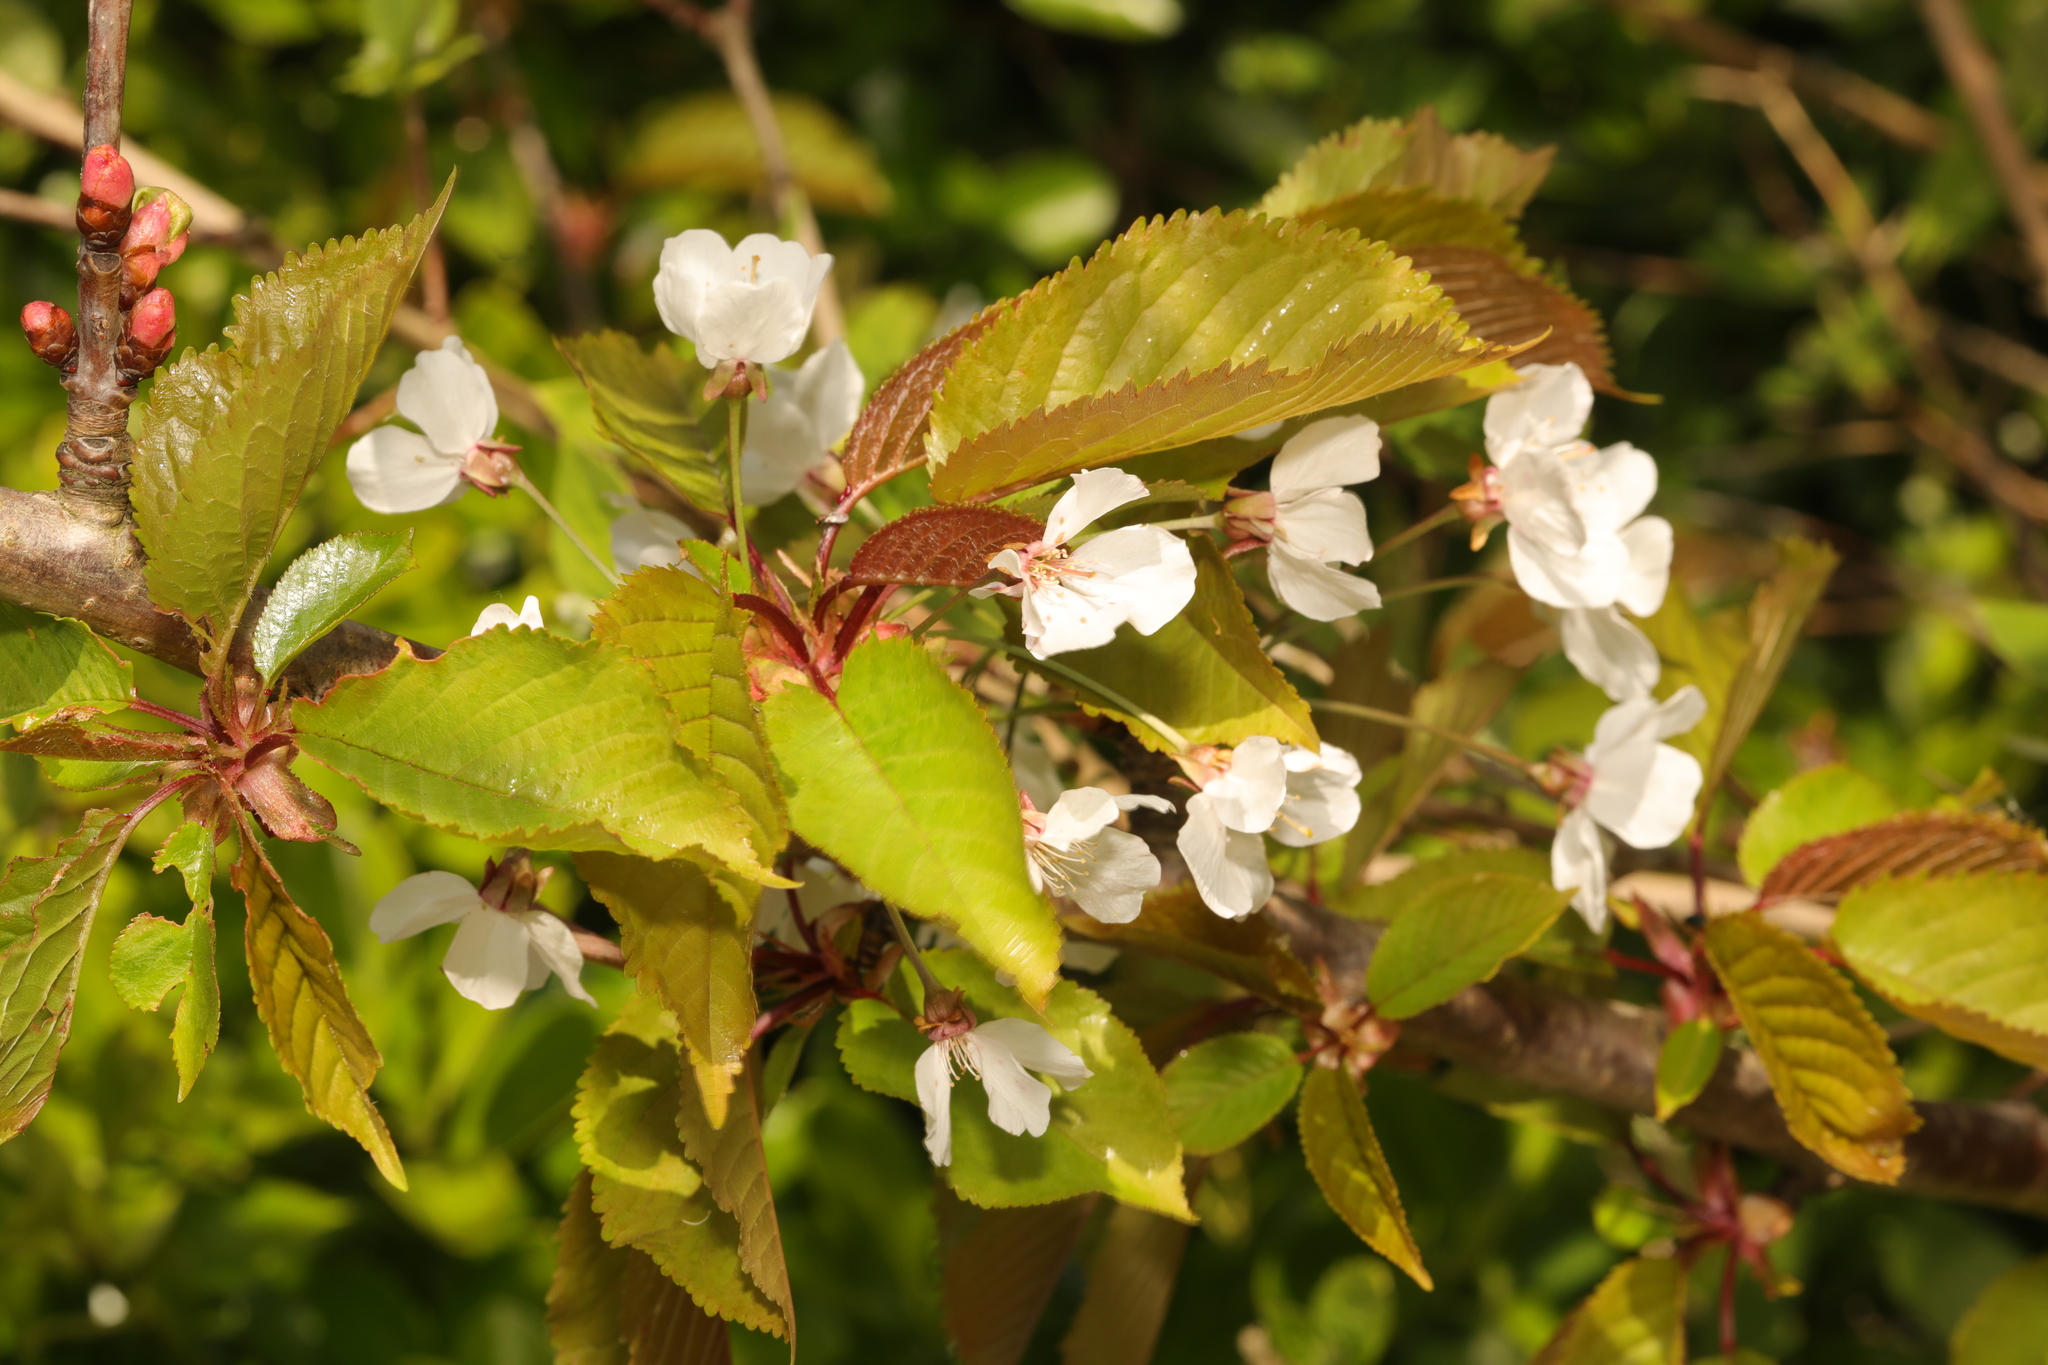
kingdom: Plantae
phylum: Tracheophyta
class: Magnoliopsida
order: Rosales
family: Rosaceae
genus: Prunus
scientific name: Prunus avium
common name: Sweet cherry
